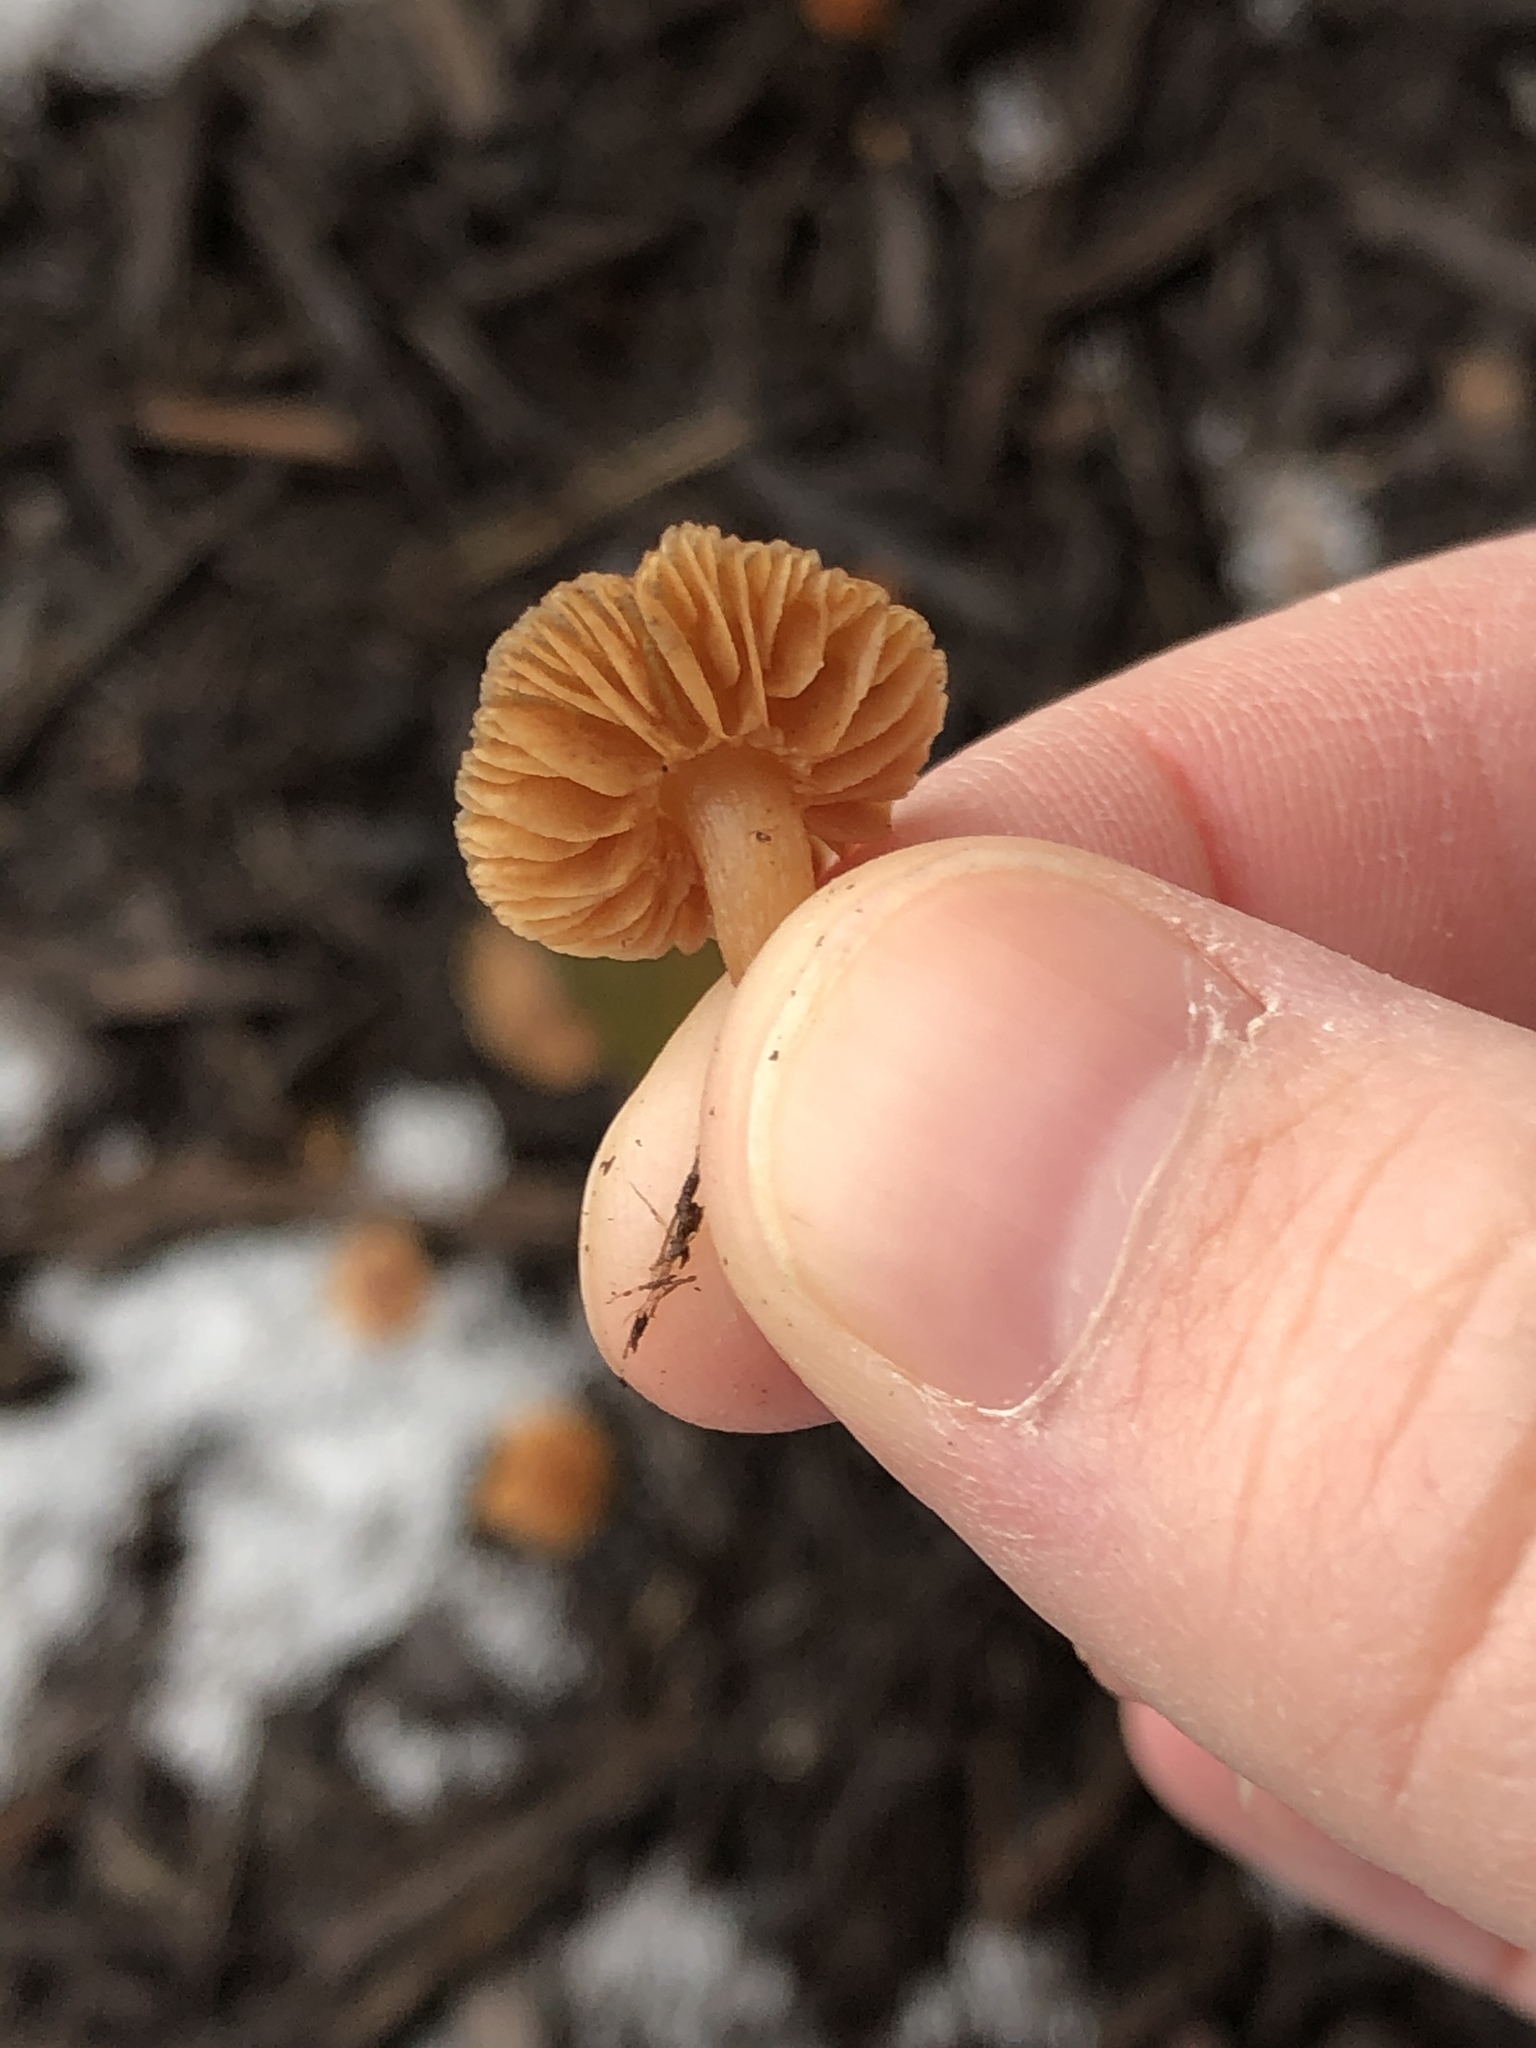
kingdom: Fungi
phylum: Basidiomycota
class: Agaricomycetes
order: Agaricales
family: Tubariaceae
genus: Tubaria
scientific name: Tubaria furfuracea
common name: Scurfy twiglet
